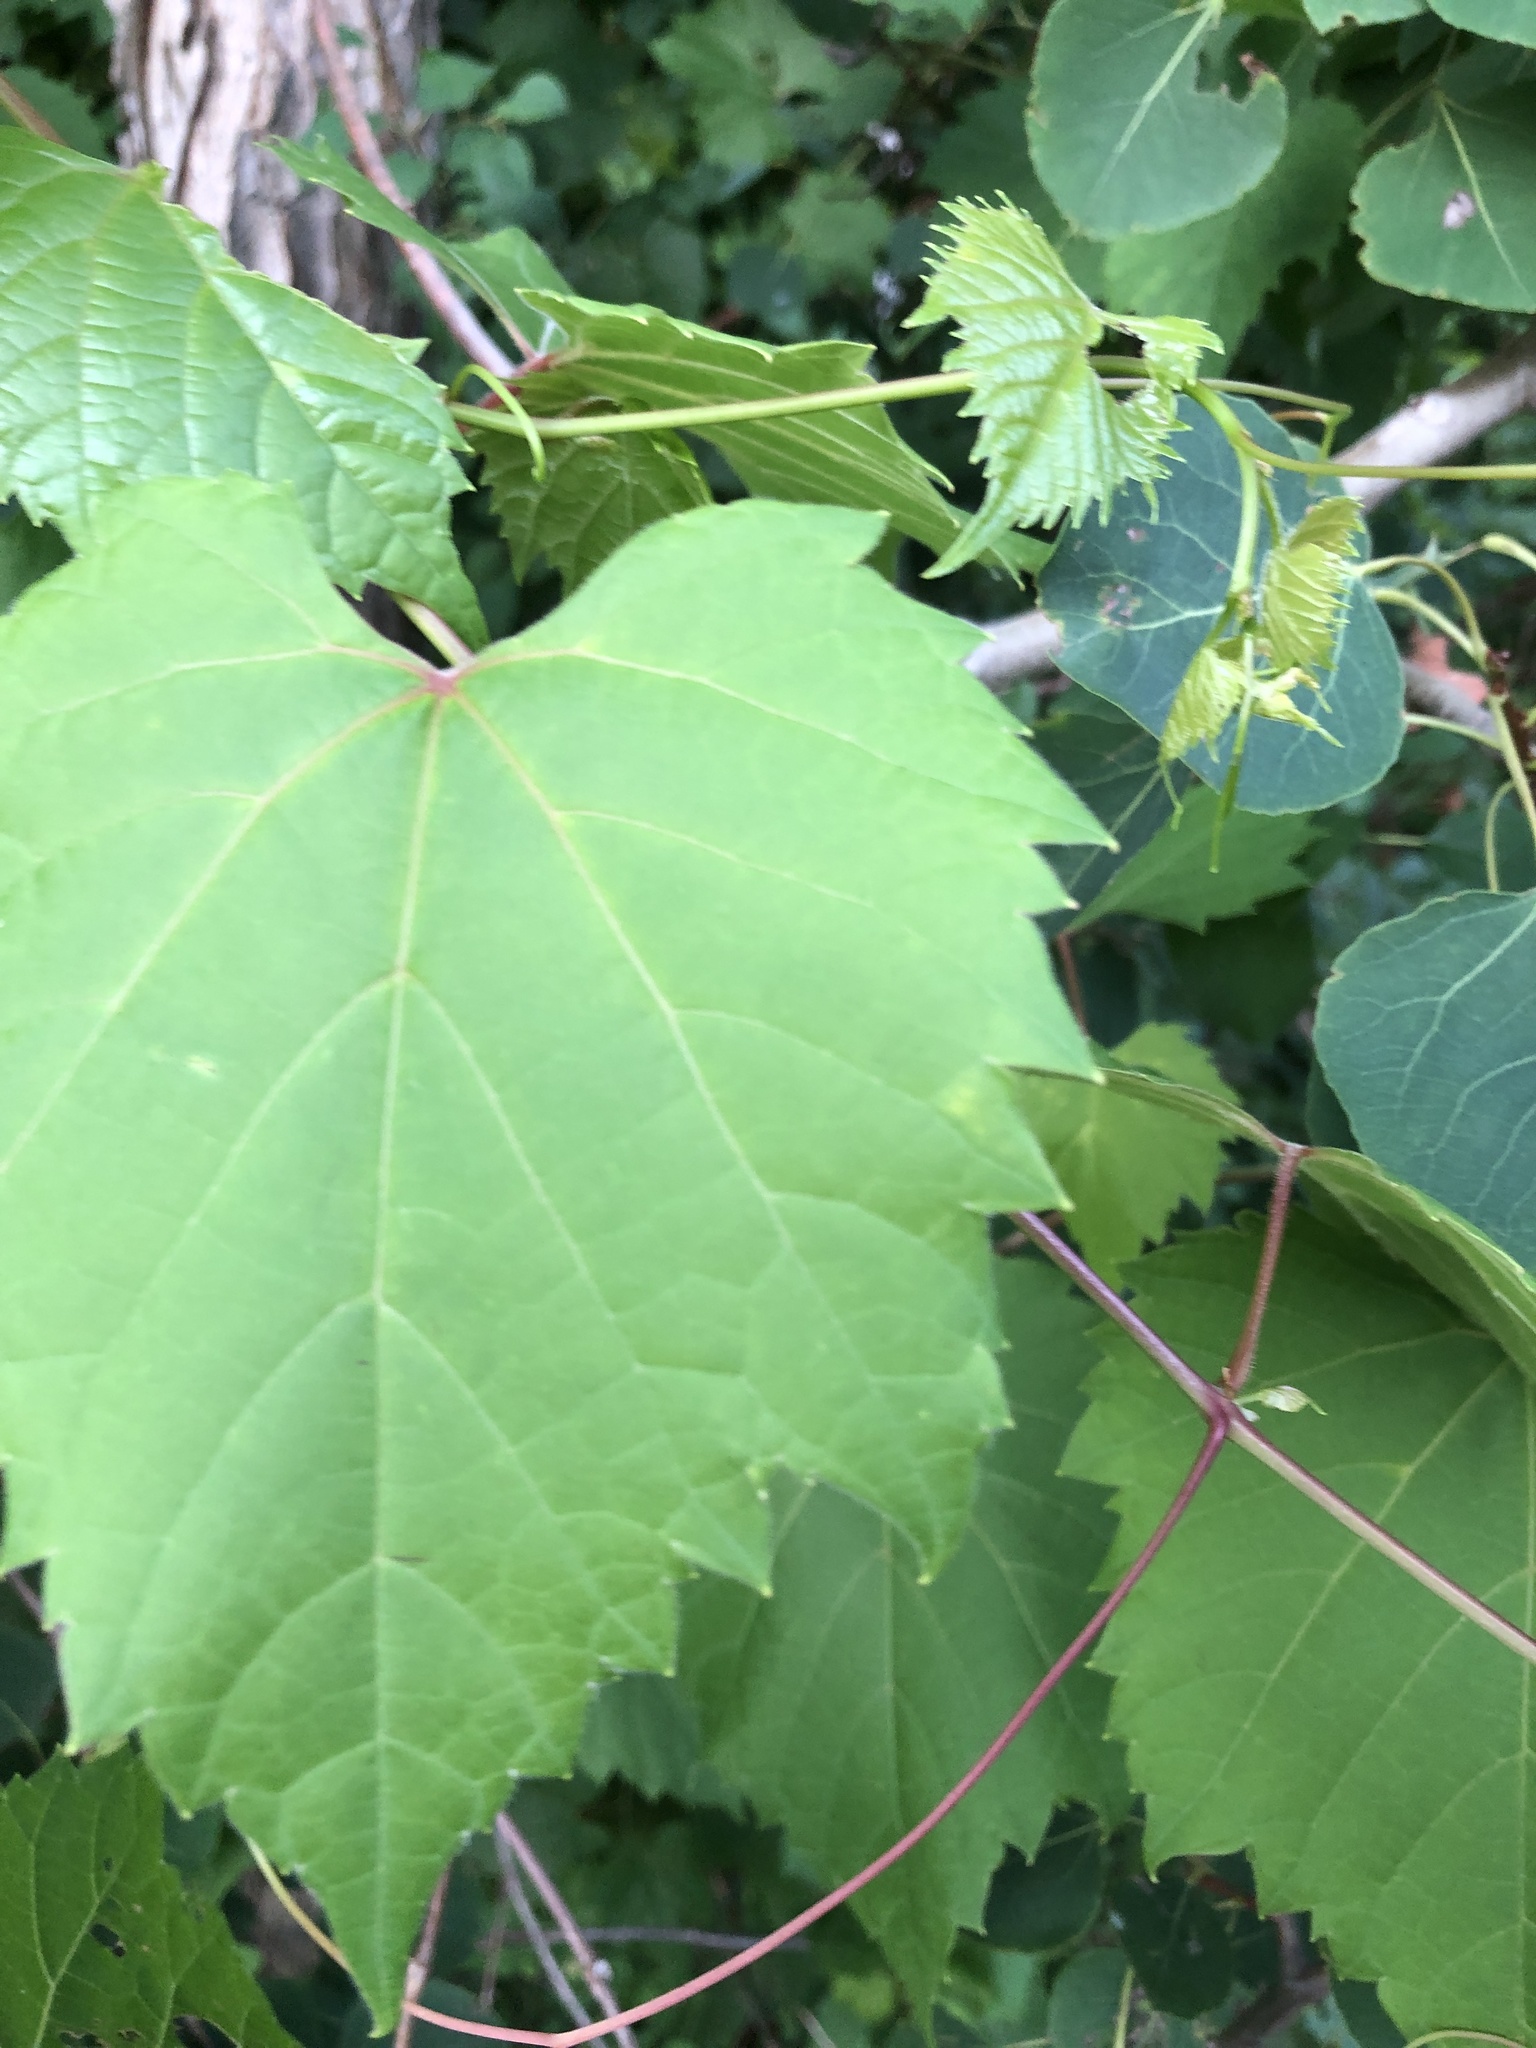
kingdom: Plantae
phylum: Tracheophyta
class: Magnoliopsida
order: Vitales
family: Vitaceae
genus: Vitis
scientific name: Vitis riparia
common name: Frost grape
